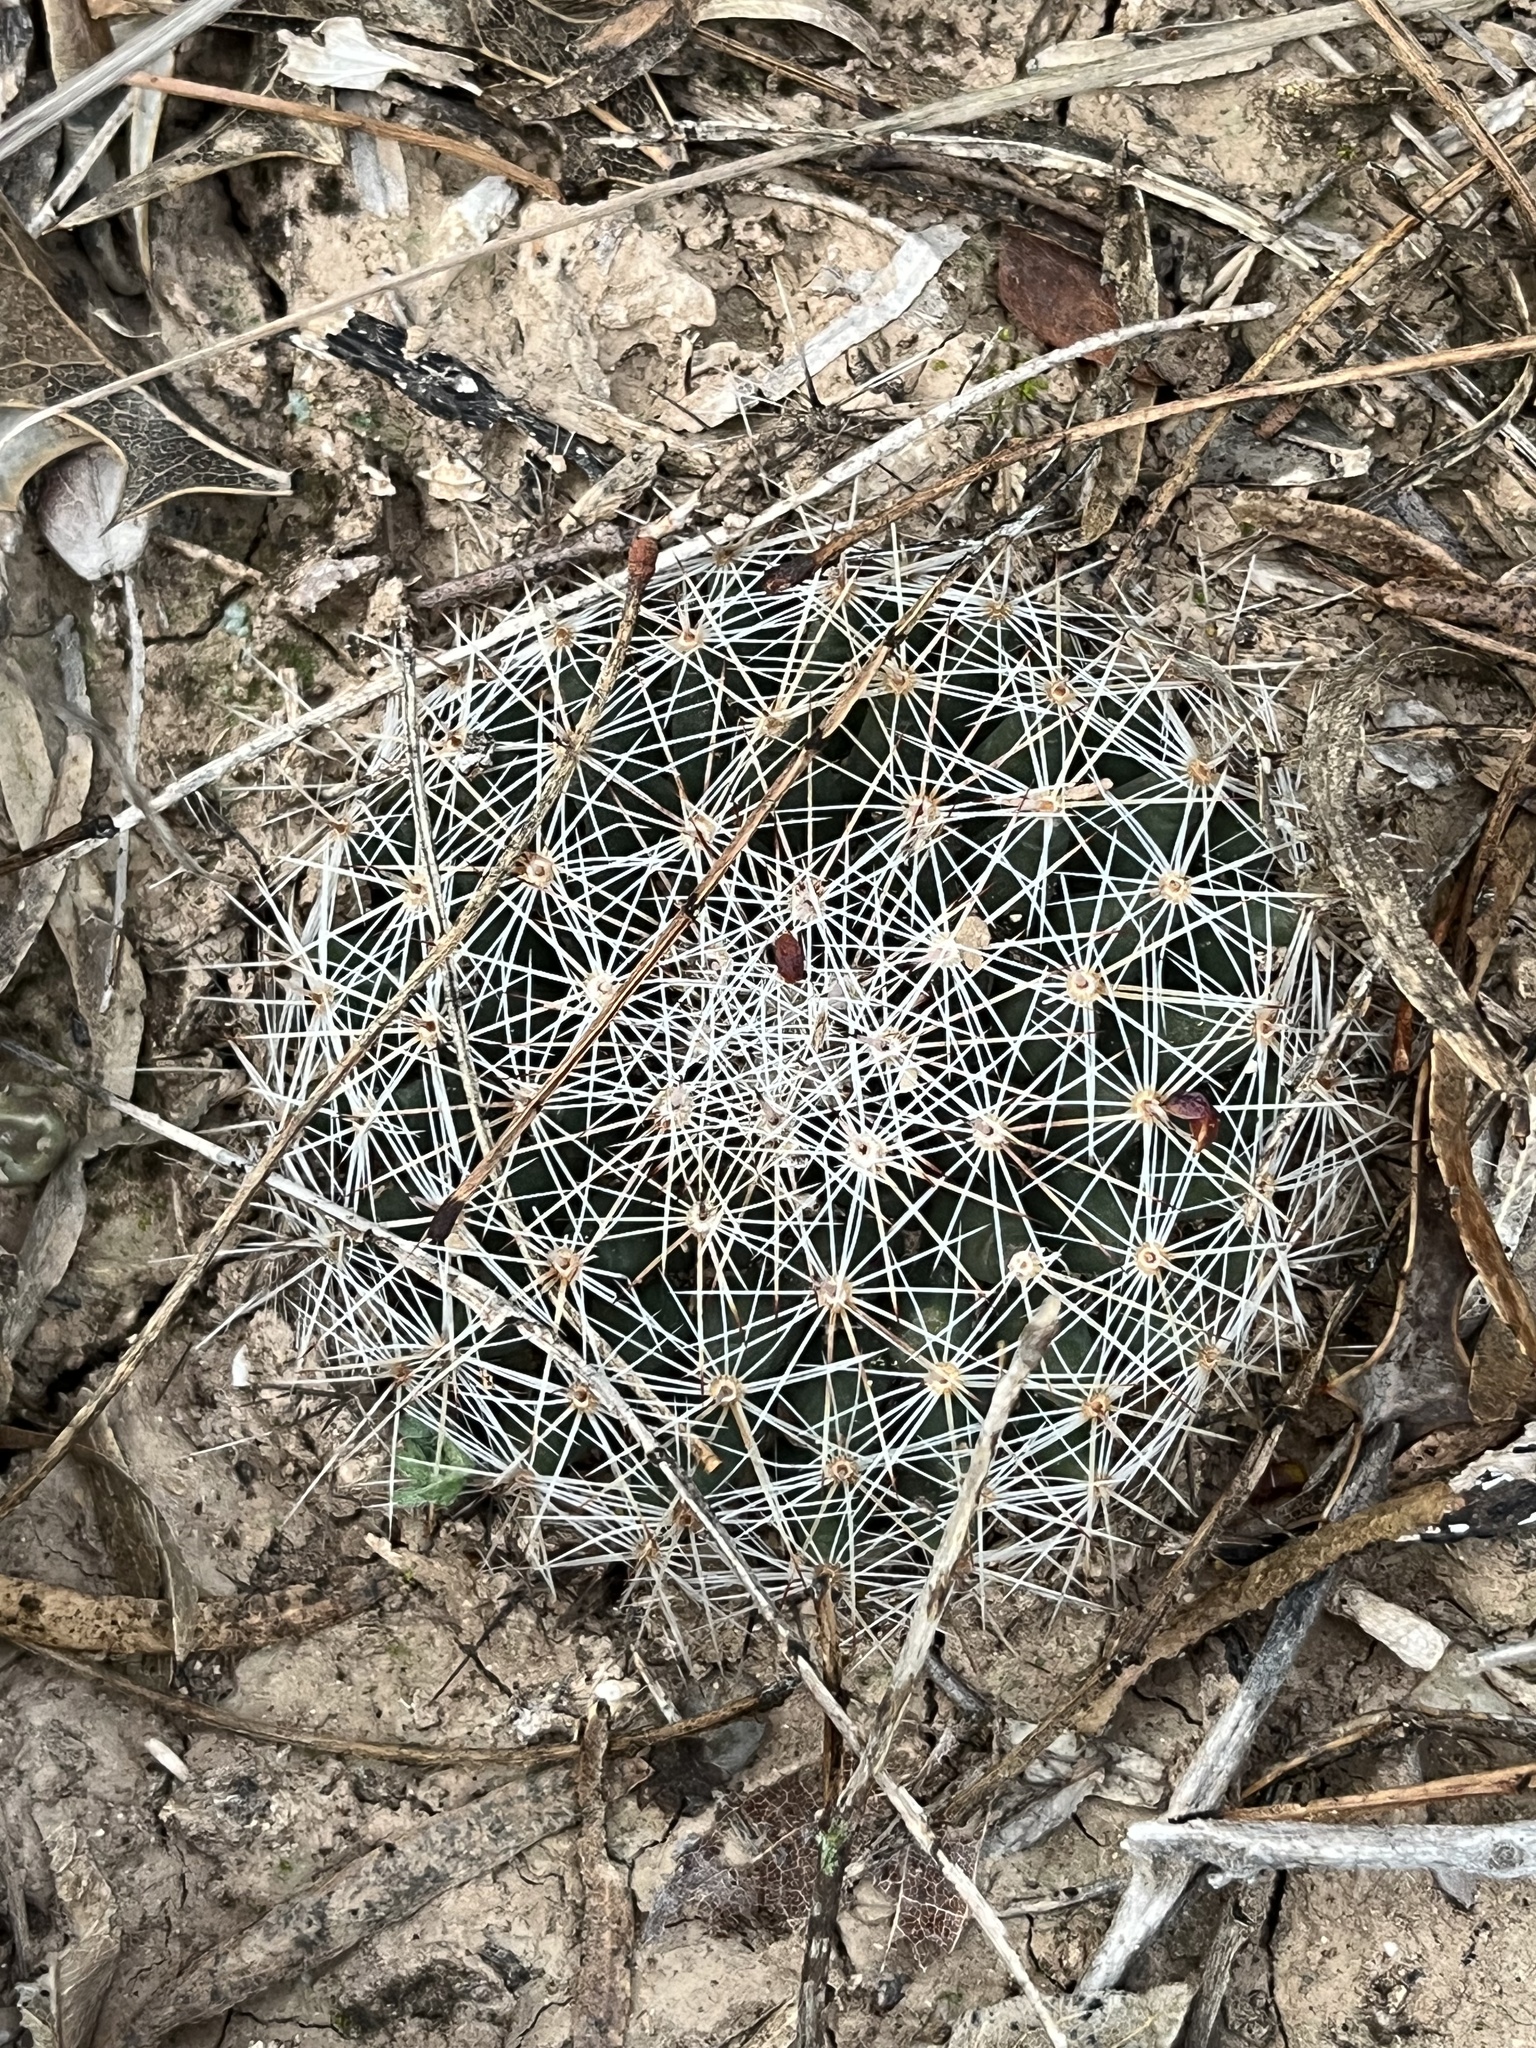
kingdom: Plantae
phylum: Tracheophyta
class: Magnoliopsida
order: Caryophyllales
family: Cactaceae
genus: Mammillaria
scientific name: Mammillaria heyderi
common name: Little nipple cactus
